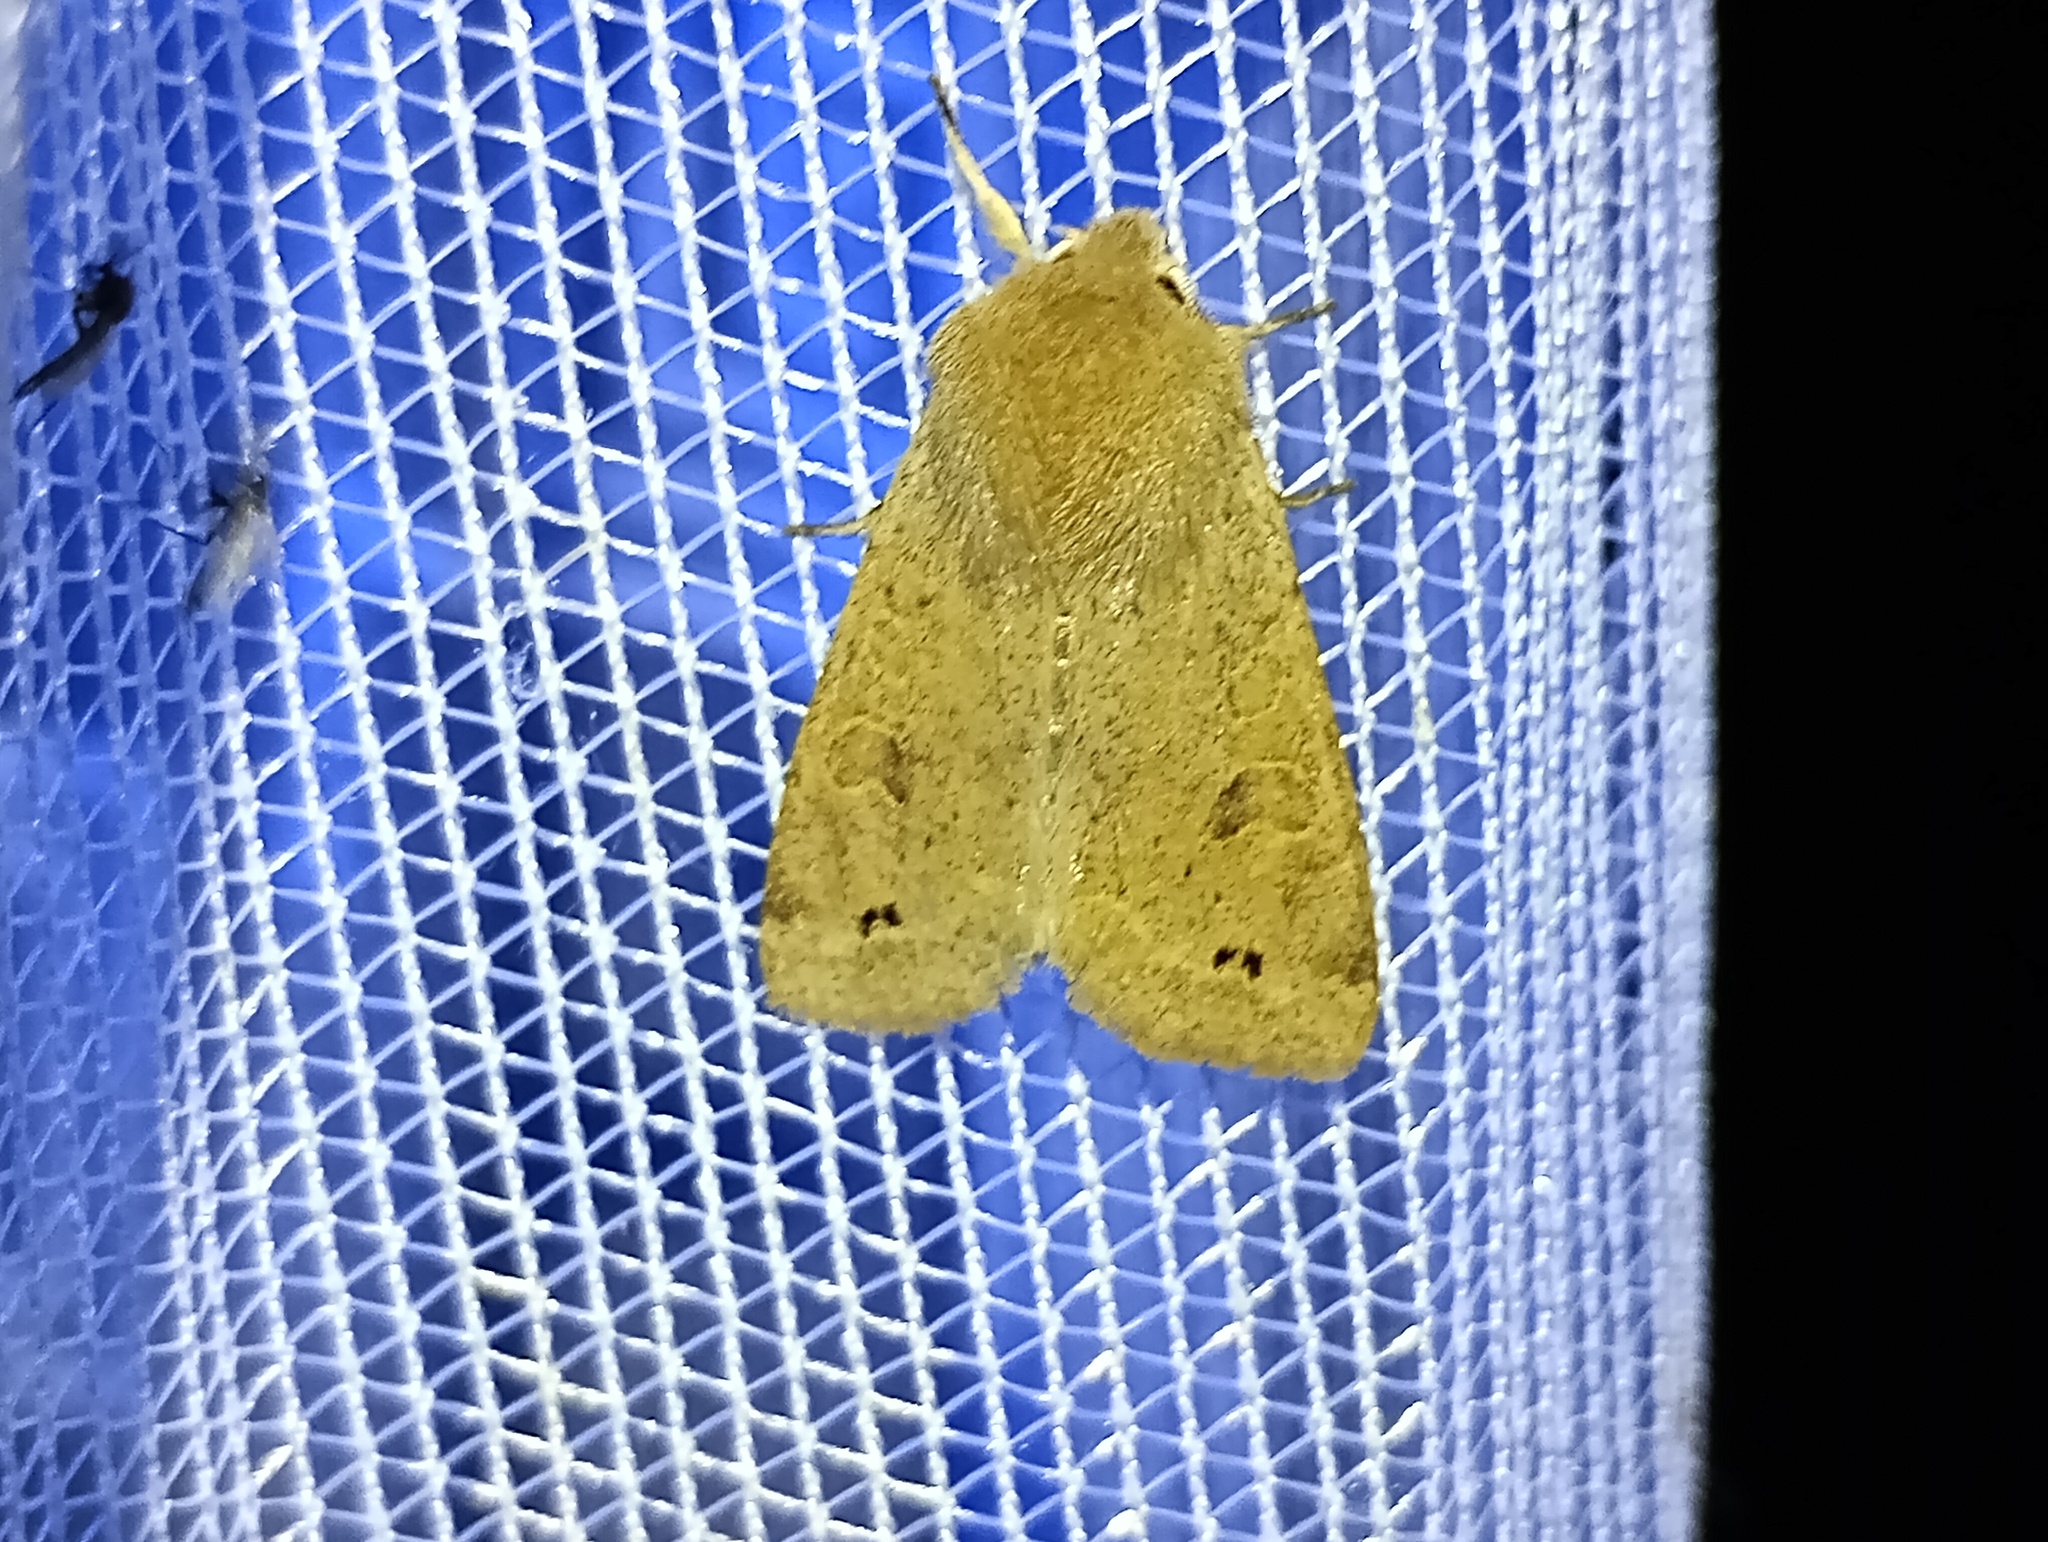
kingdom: Animalia
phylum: Arthropoda
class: Insecta
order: Lepidoptera
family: Noctuidae
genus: Anorthoa
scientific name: Anorthoa munda
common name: Twin-spotted quaker
